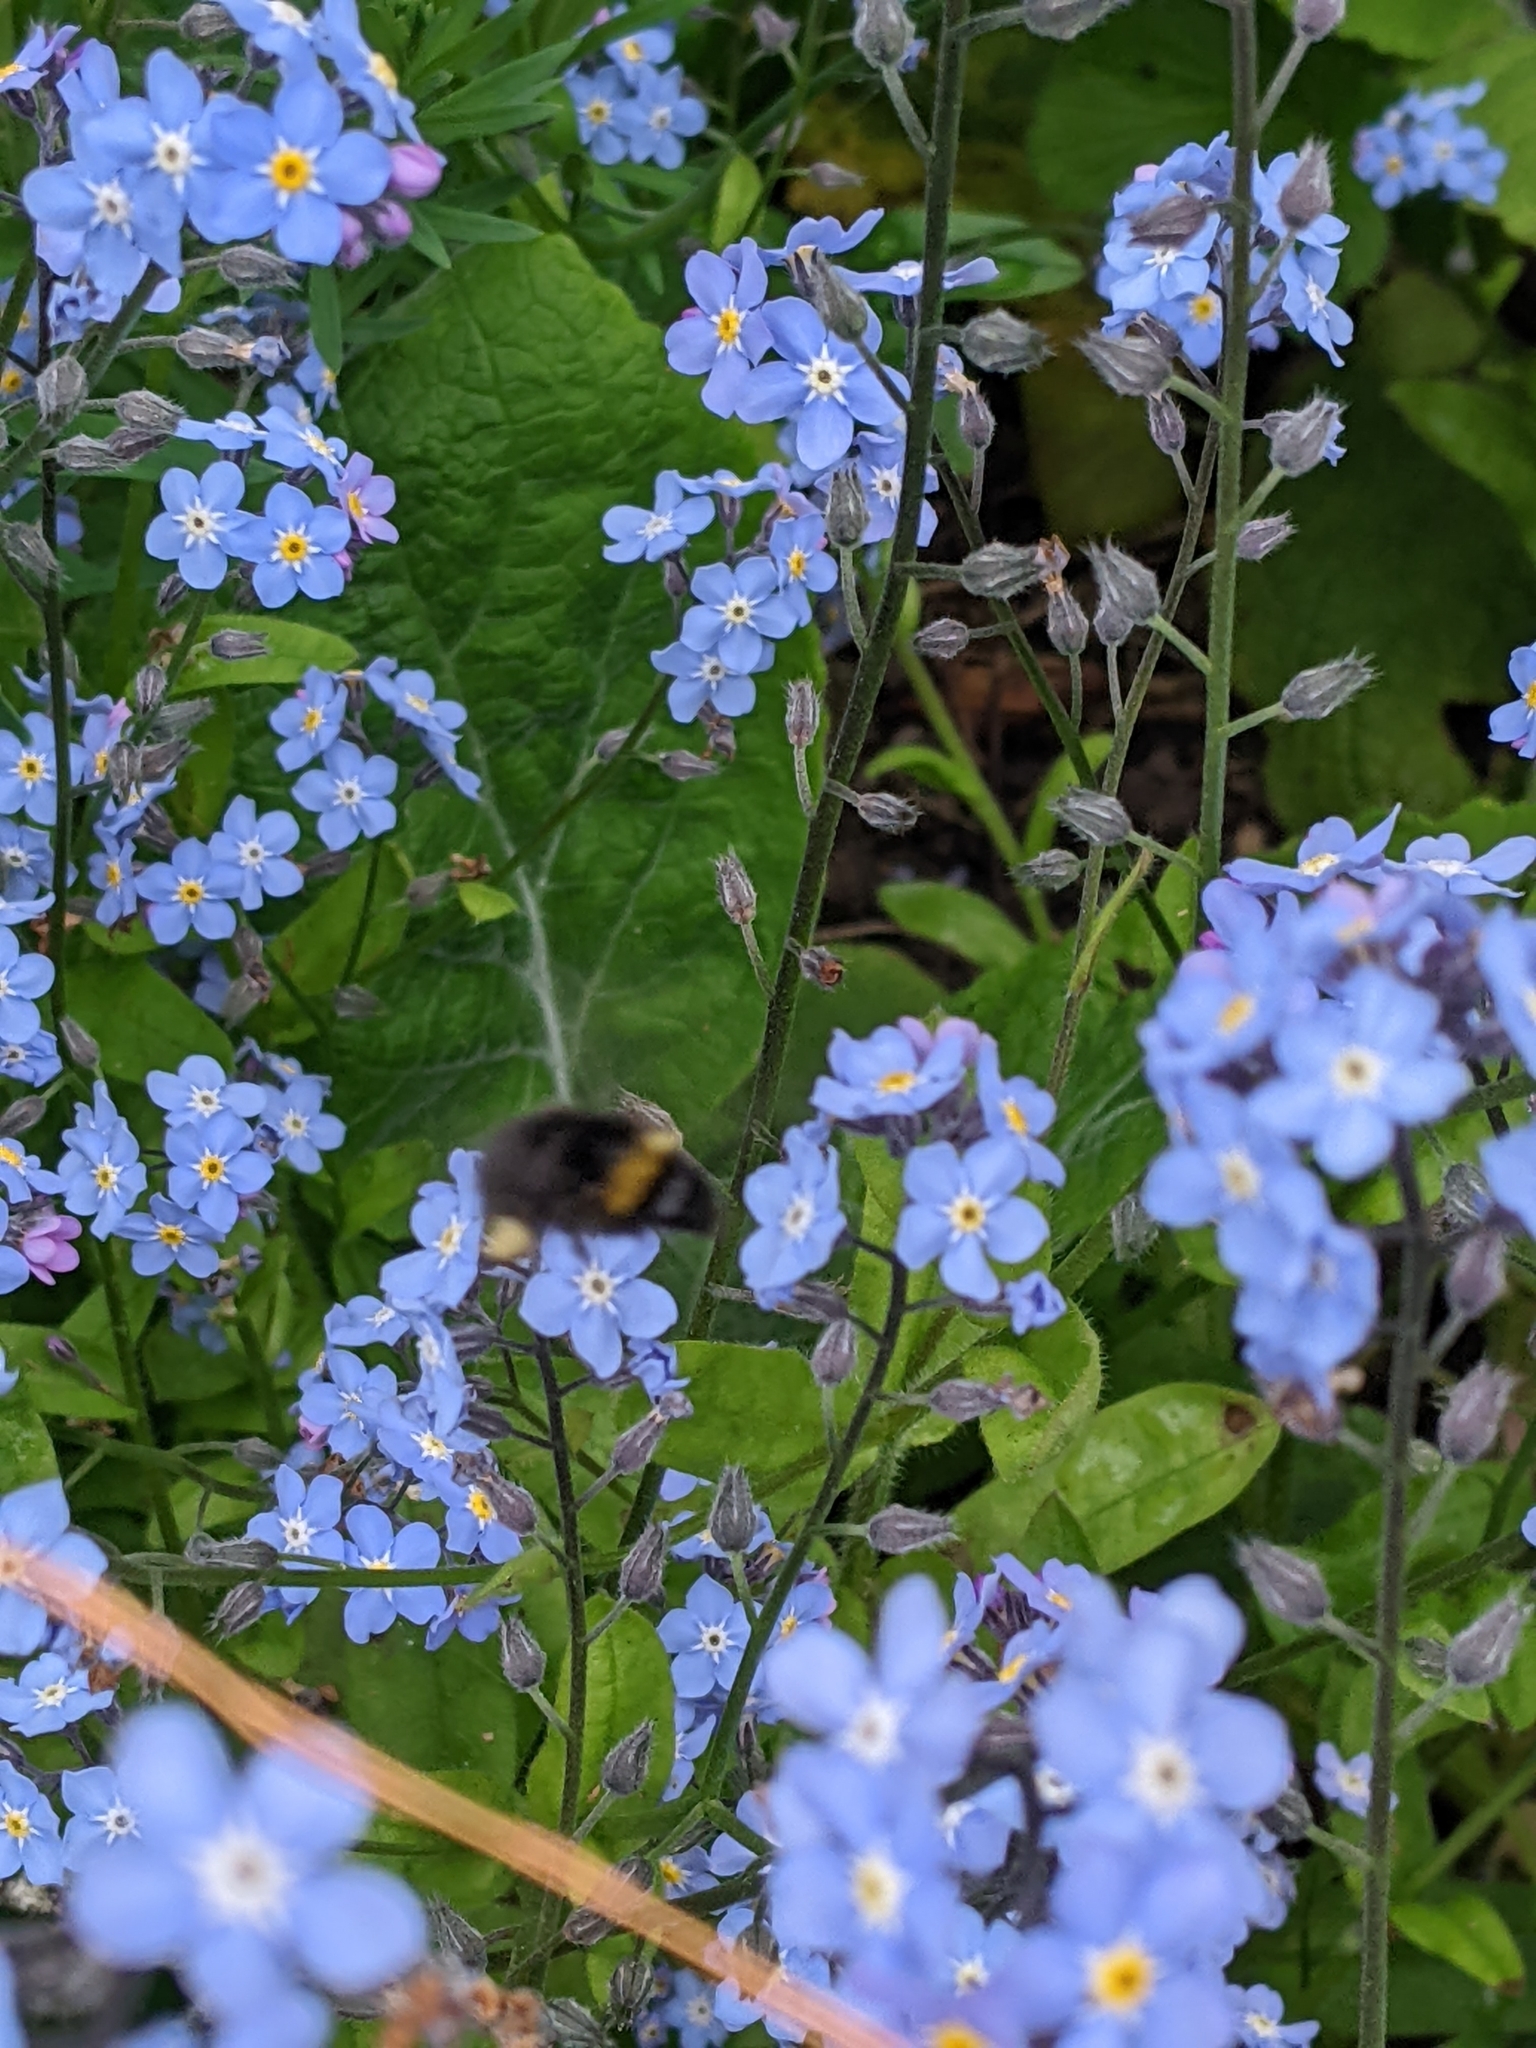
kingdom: Animalia
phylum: Arthropoda
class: Insecta
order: Hymenoptera
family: Apidae
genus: Bombus
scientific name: Bombus pratorum
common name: Early humble-bee
